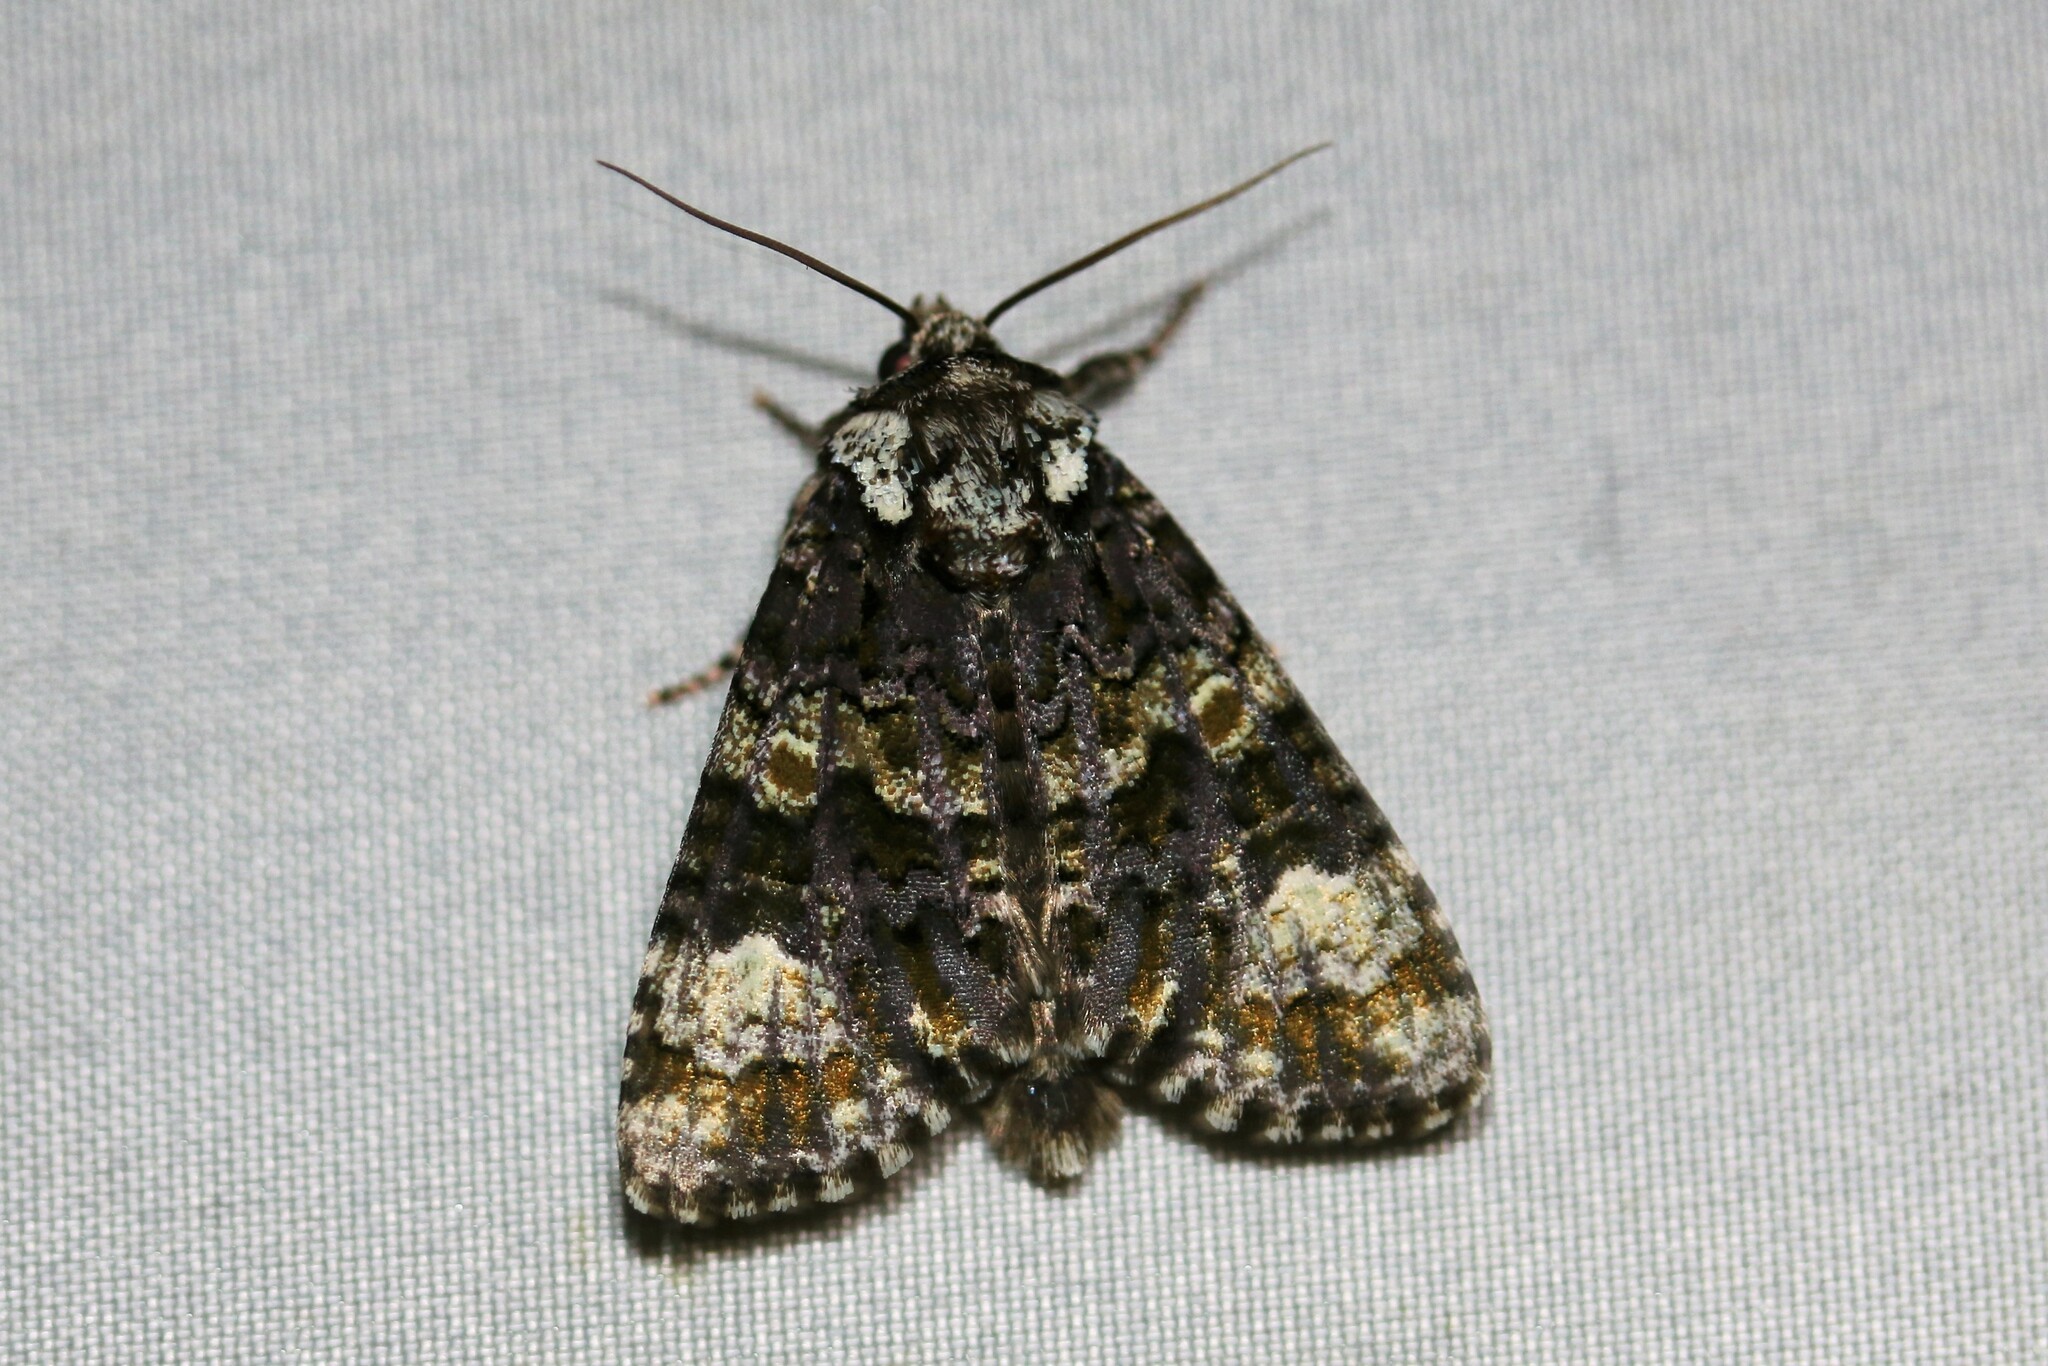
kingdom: Animalia
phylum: Arthropoda
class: Insecta
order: Lepidoptera
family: Noctuidae
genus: Craniophora
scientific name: Craniophora ligustri
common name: Coronet
